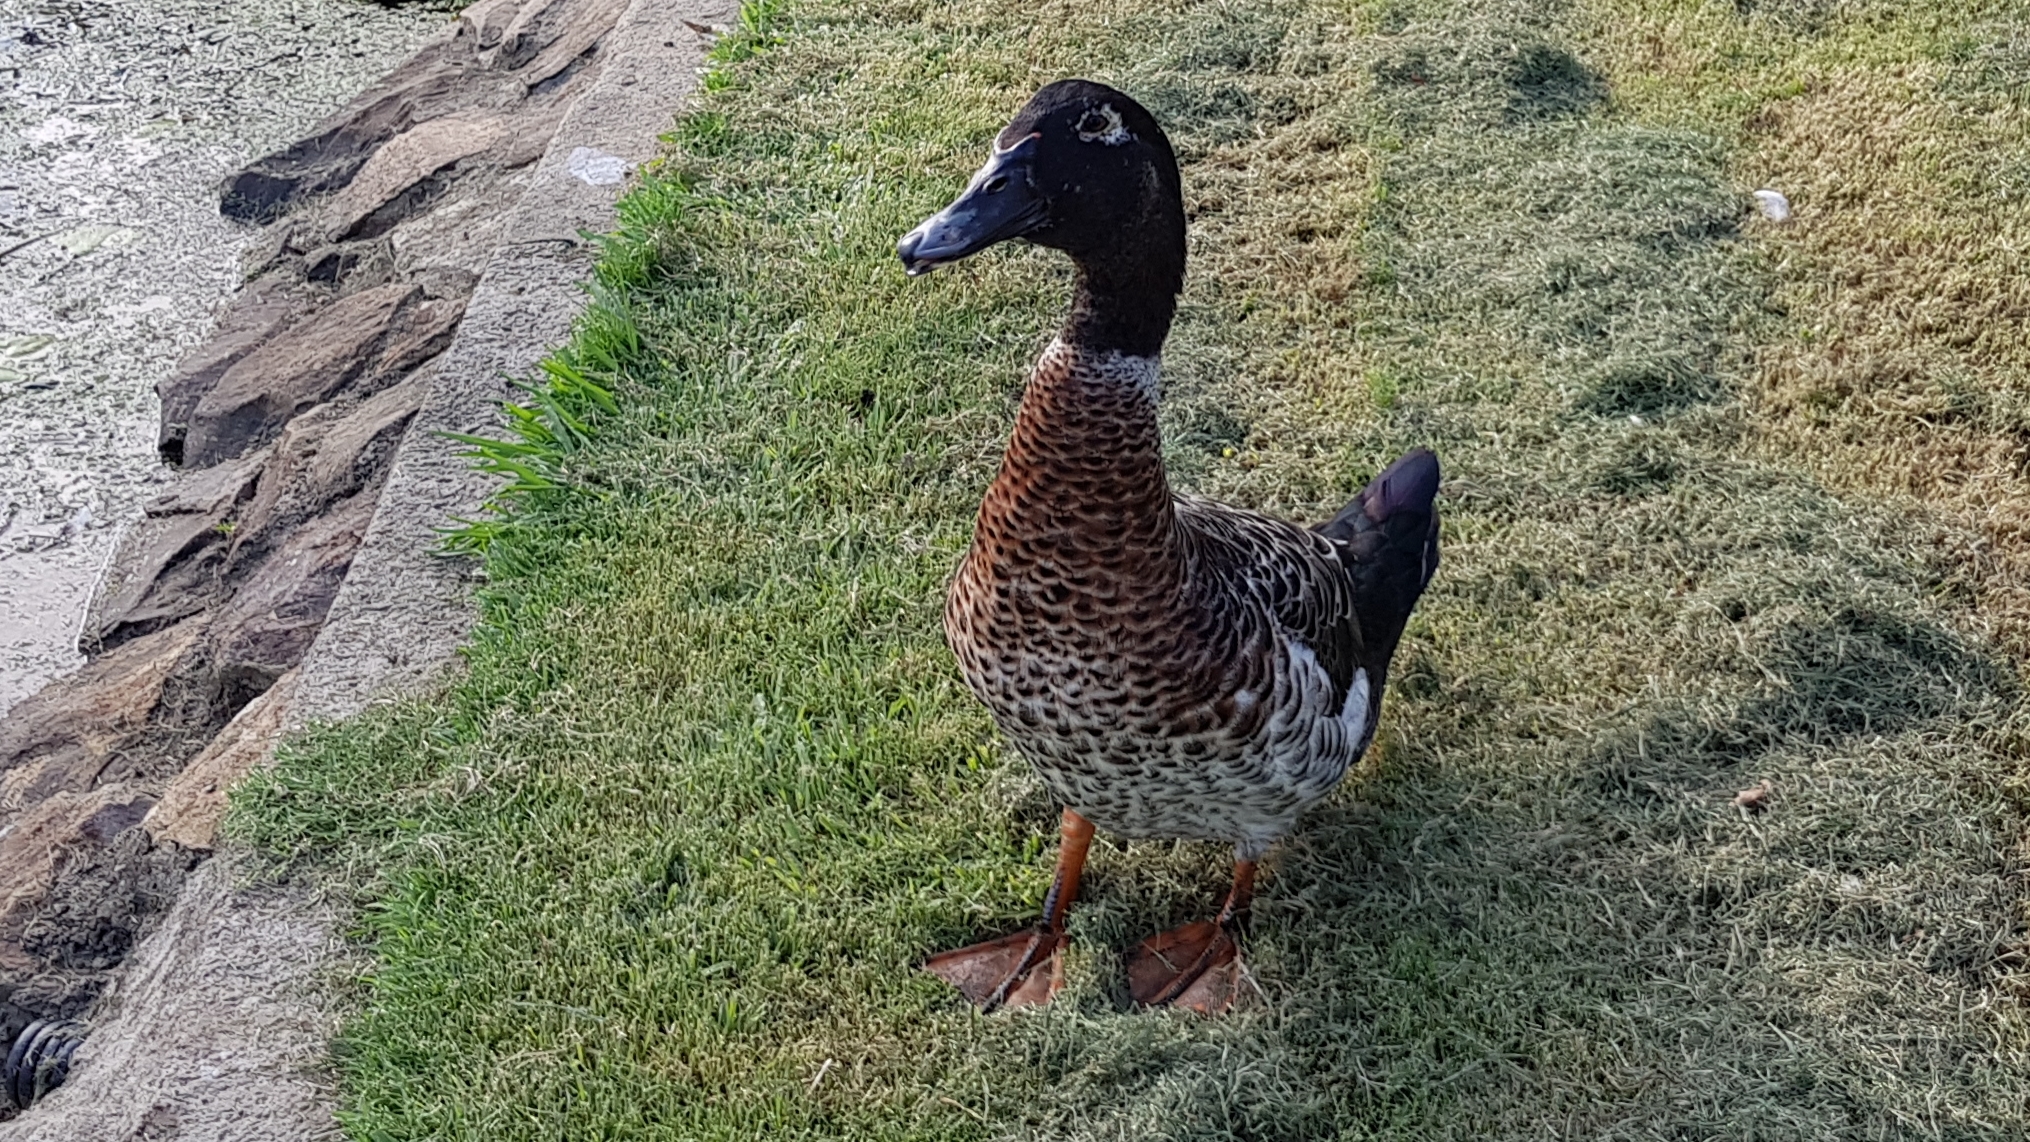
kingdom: Animalia
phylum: Chordata
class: Aves
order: Anseriformes
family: Anatidae
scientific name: Anatidae
